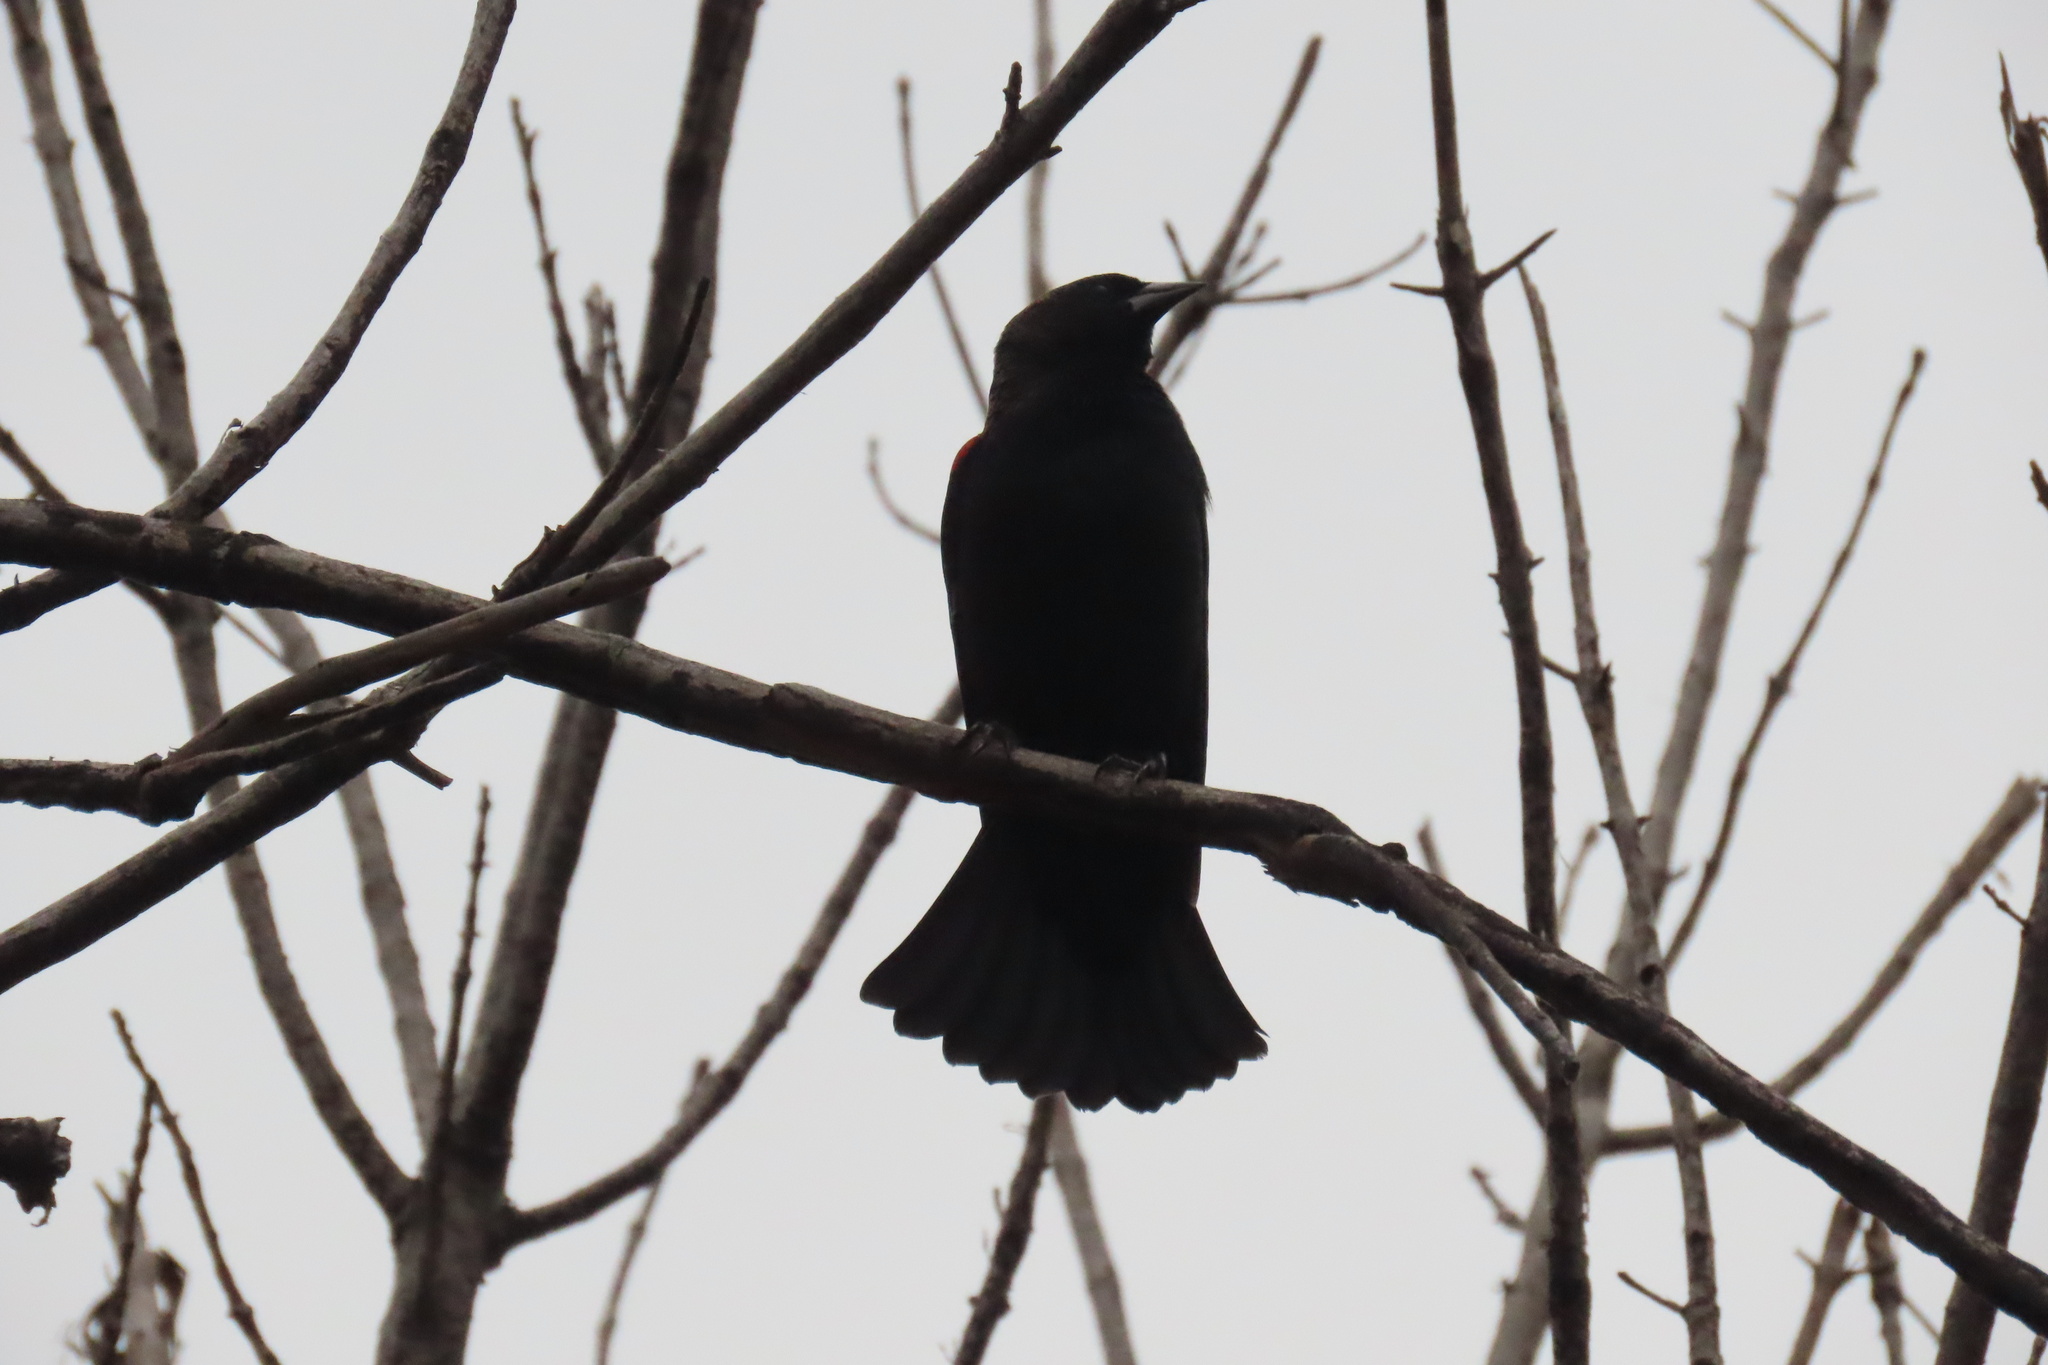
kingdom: Animalia
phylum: Chordata
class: Aves
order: Passeriformes
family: Icteridae
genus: Agelaius
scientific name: Agelaius phoeniceus
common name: Red-winged blackbird
